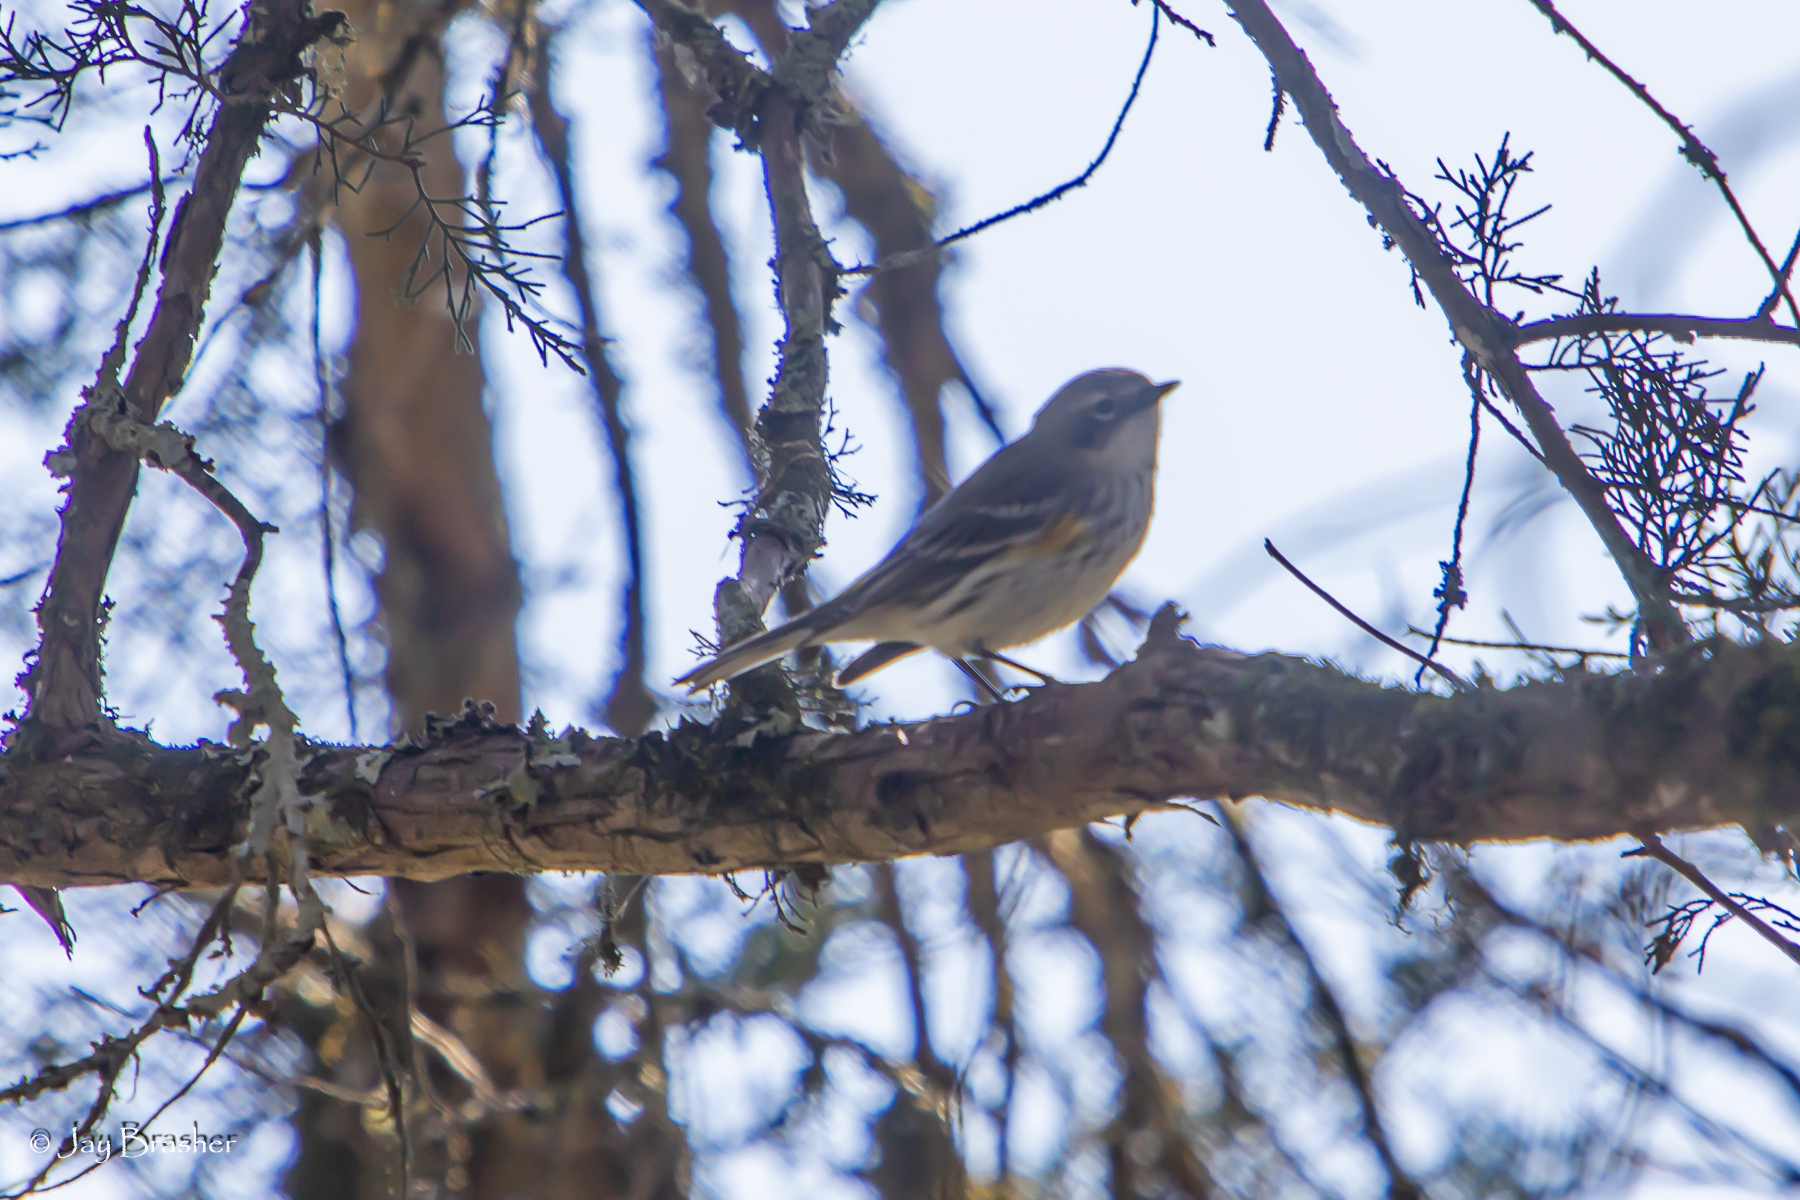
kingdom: Animalia
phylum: Chordata
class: Aves
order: Passeriformes
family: Parulidae
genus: Setophaga
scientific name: Setophaga coronata
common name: Myrtle warbler
